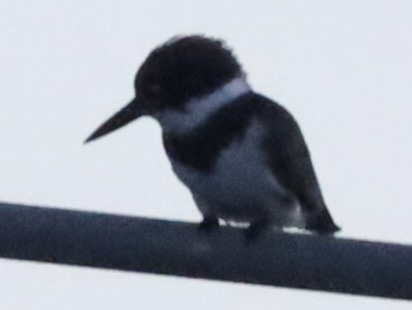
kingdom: Animalia
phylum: Chordata
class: Aves
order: Coraciiformes
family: Alcedinidae
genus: Megaceryle
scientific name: Megaceryle alcyon
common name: Belted kingfisher
